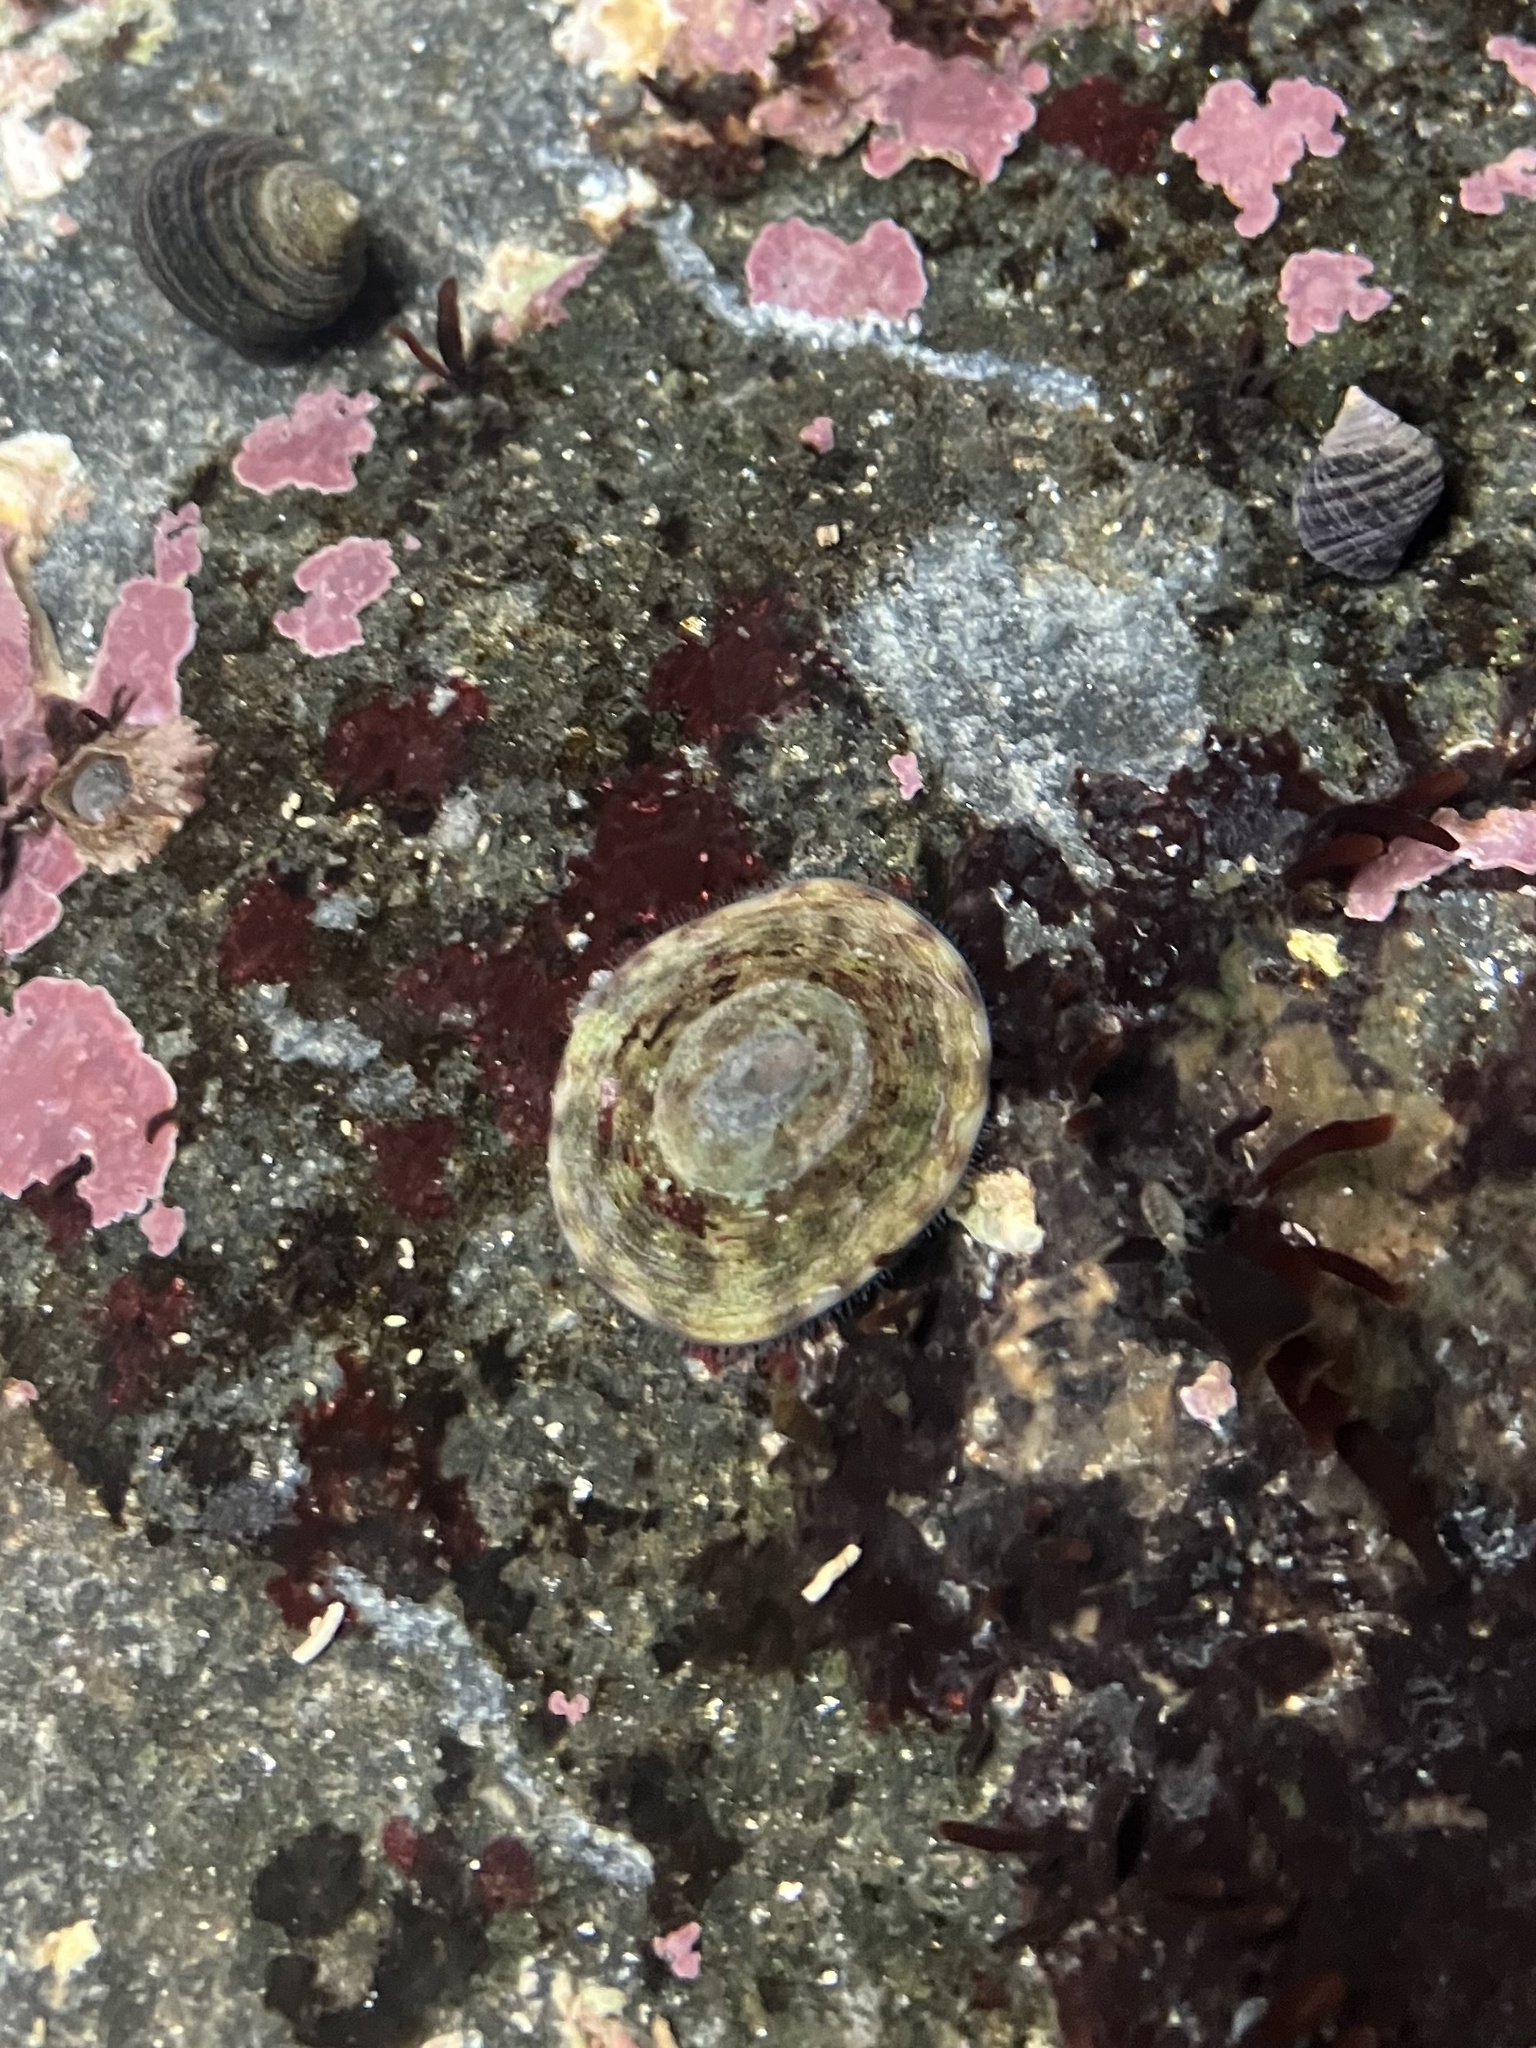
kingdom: Animalia
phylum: Mollusca
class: Gastropoda
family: Lottiidae
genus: Testudinalia
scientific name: Testudinalia testudinalis
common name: Common tortoiseshell limpet
